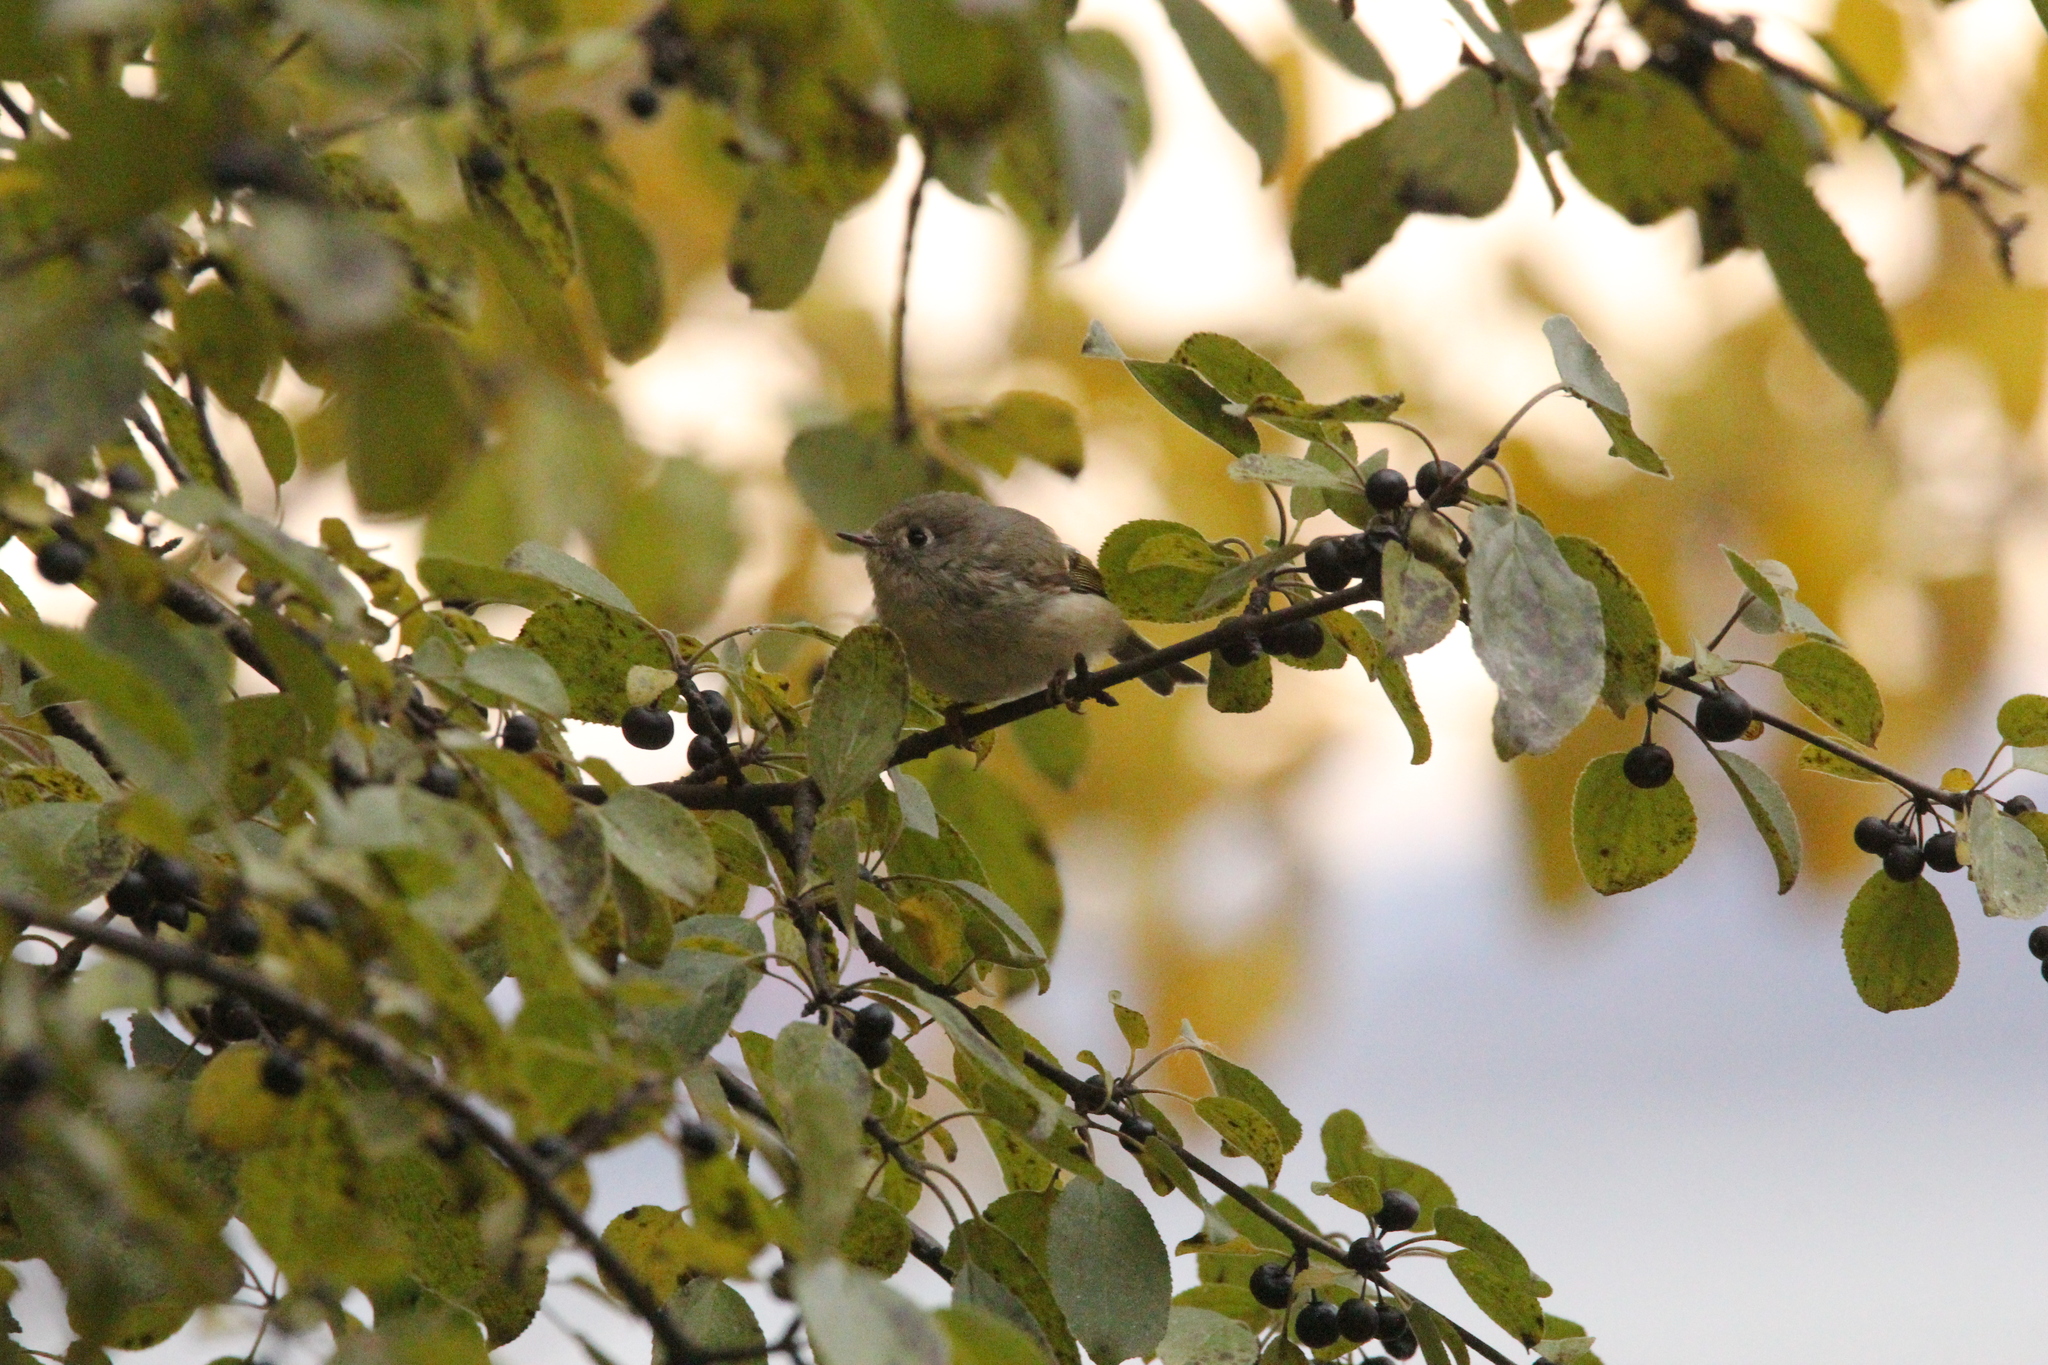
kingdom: Animalia
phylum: Chordata
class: Aves
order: Passeriformes
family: Regulidae
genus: Regulus
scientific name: Regulus calendula
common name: Ruby-crowned kinglet
